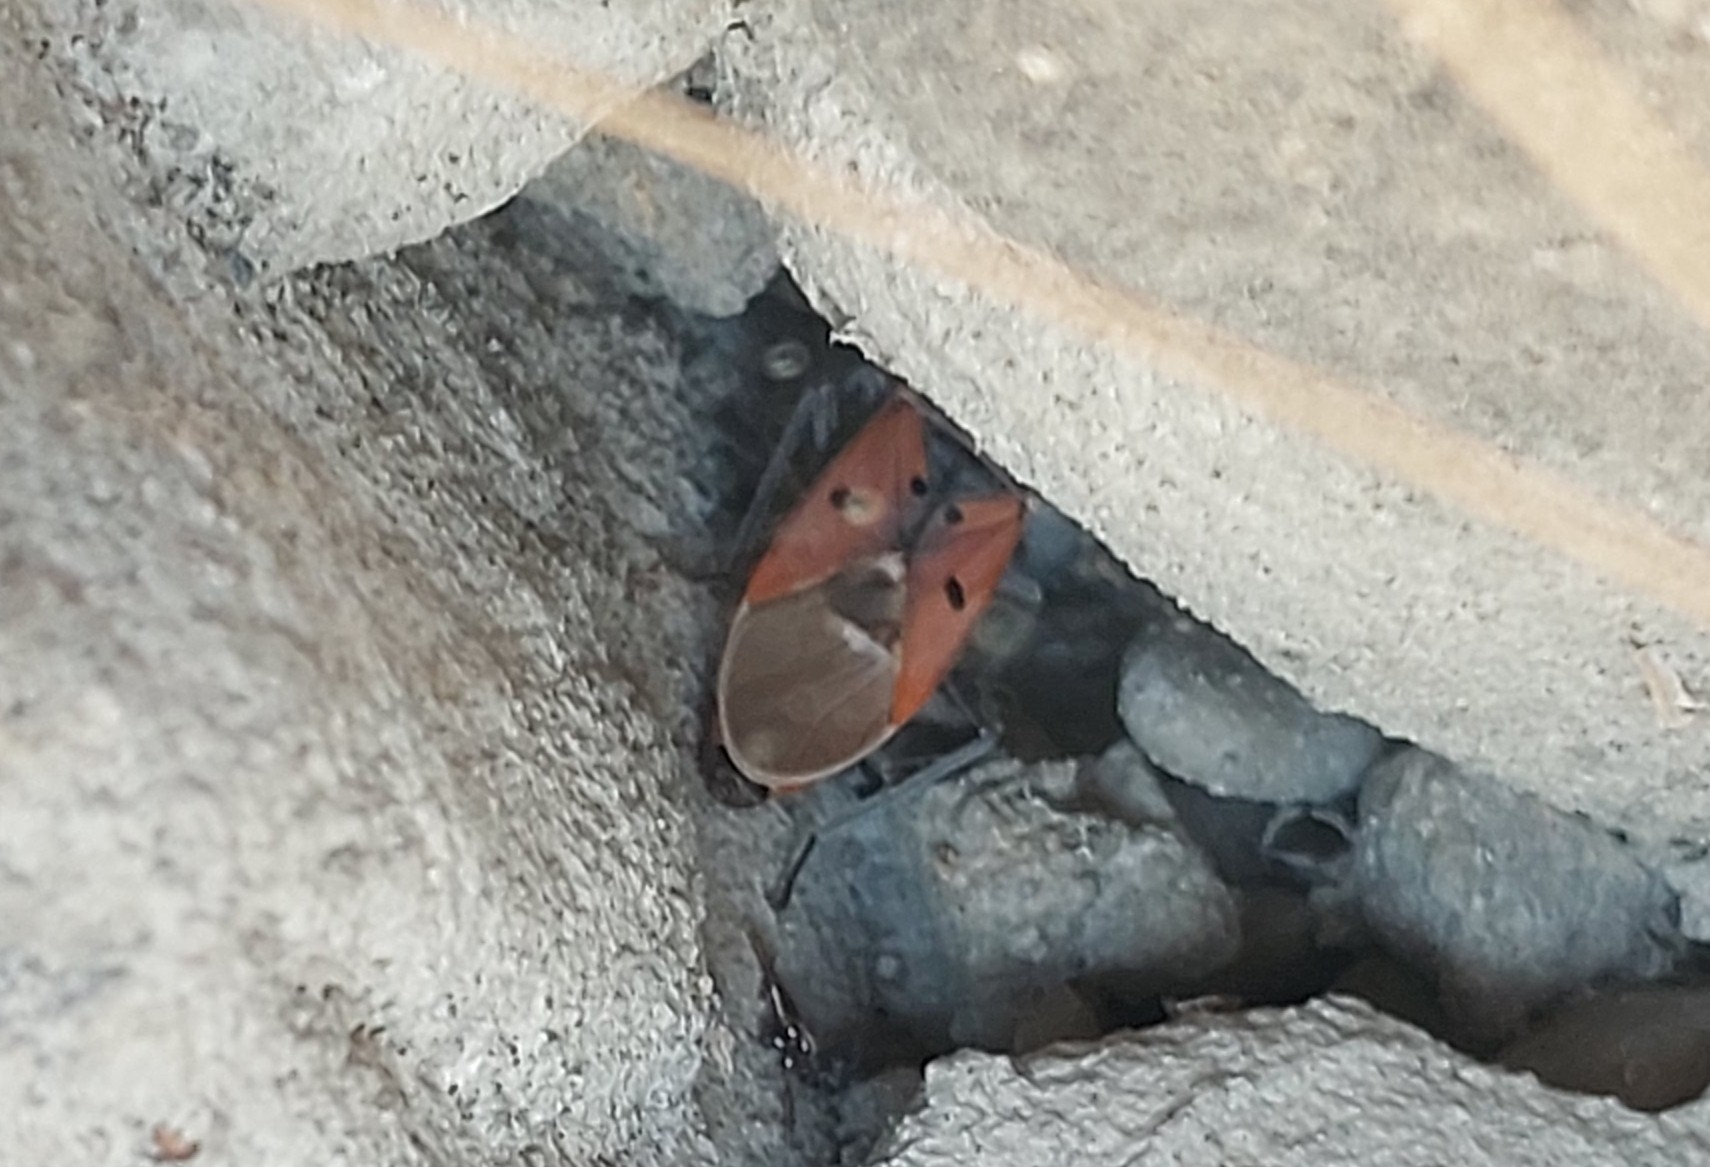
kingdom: Animalia
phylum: Arthropoda
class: Insecta
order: Hemiptera
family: Lygaeidae
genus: Lygaeus
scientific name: Lygaeus creticus
